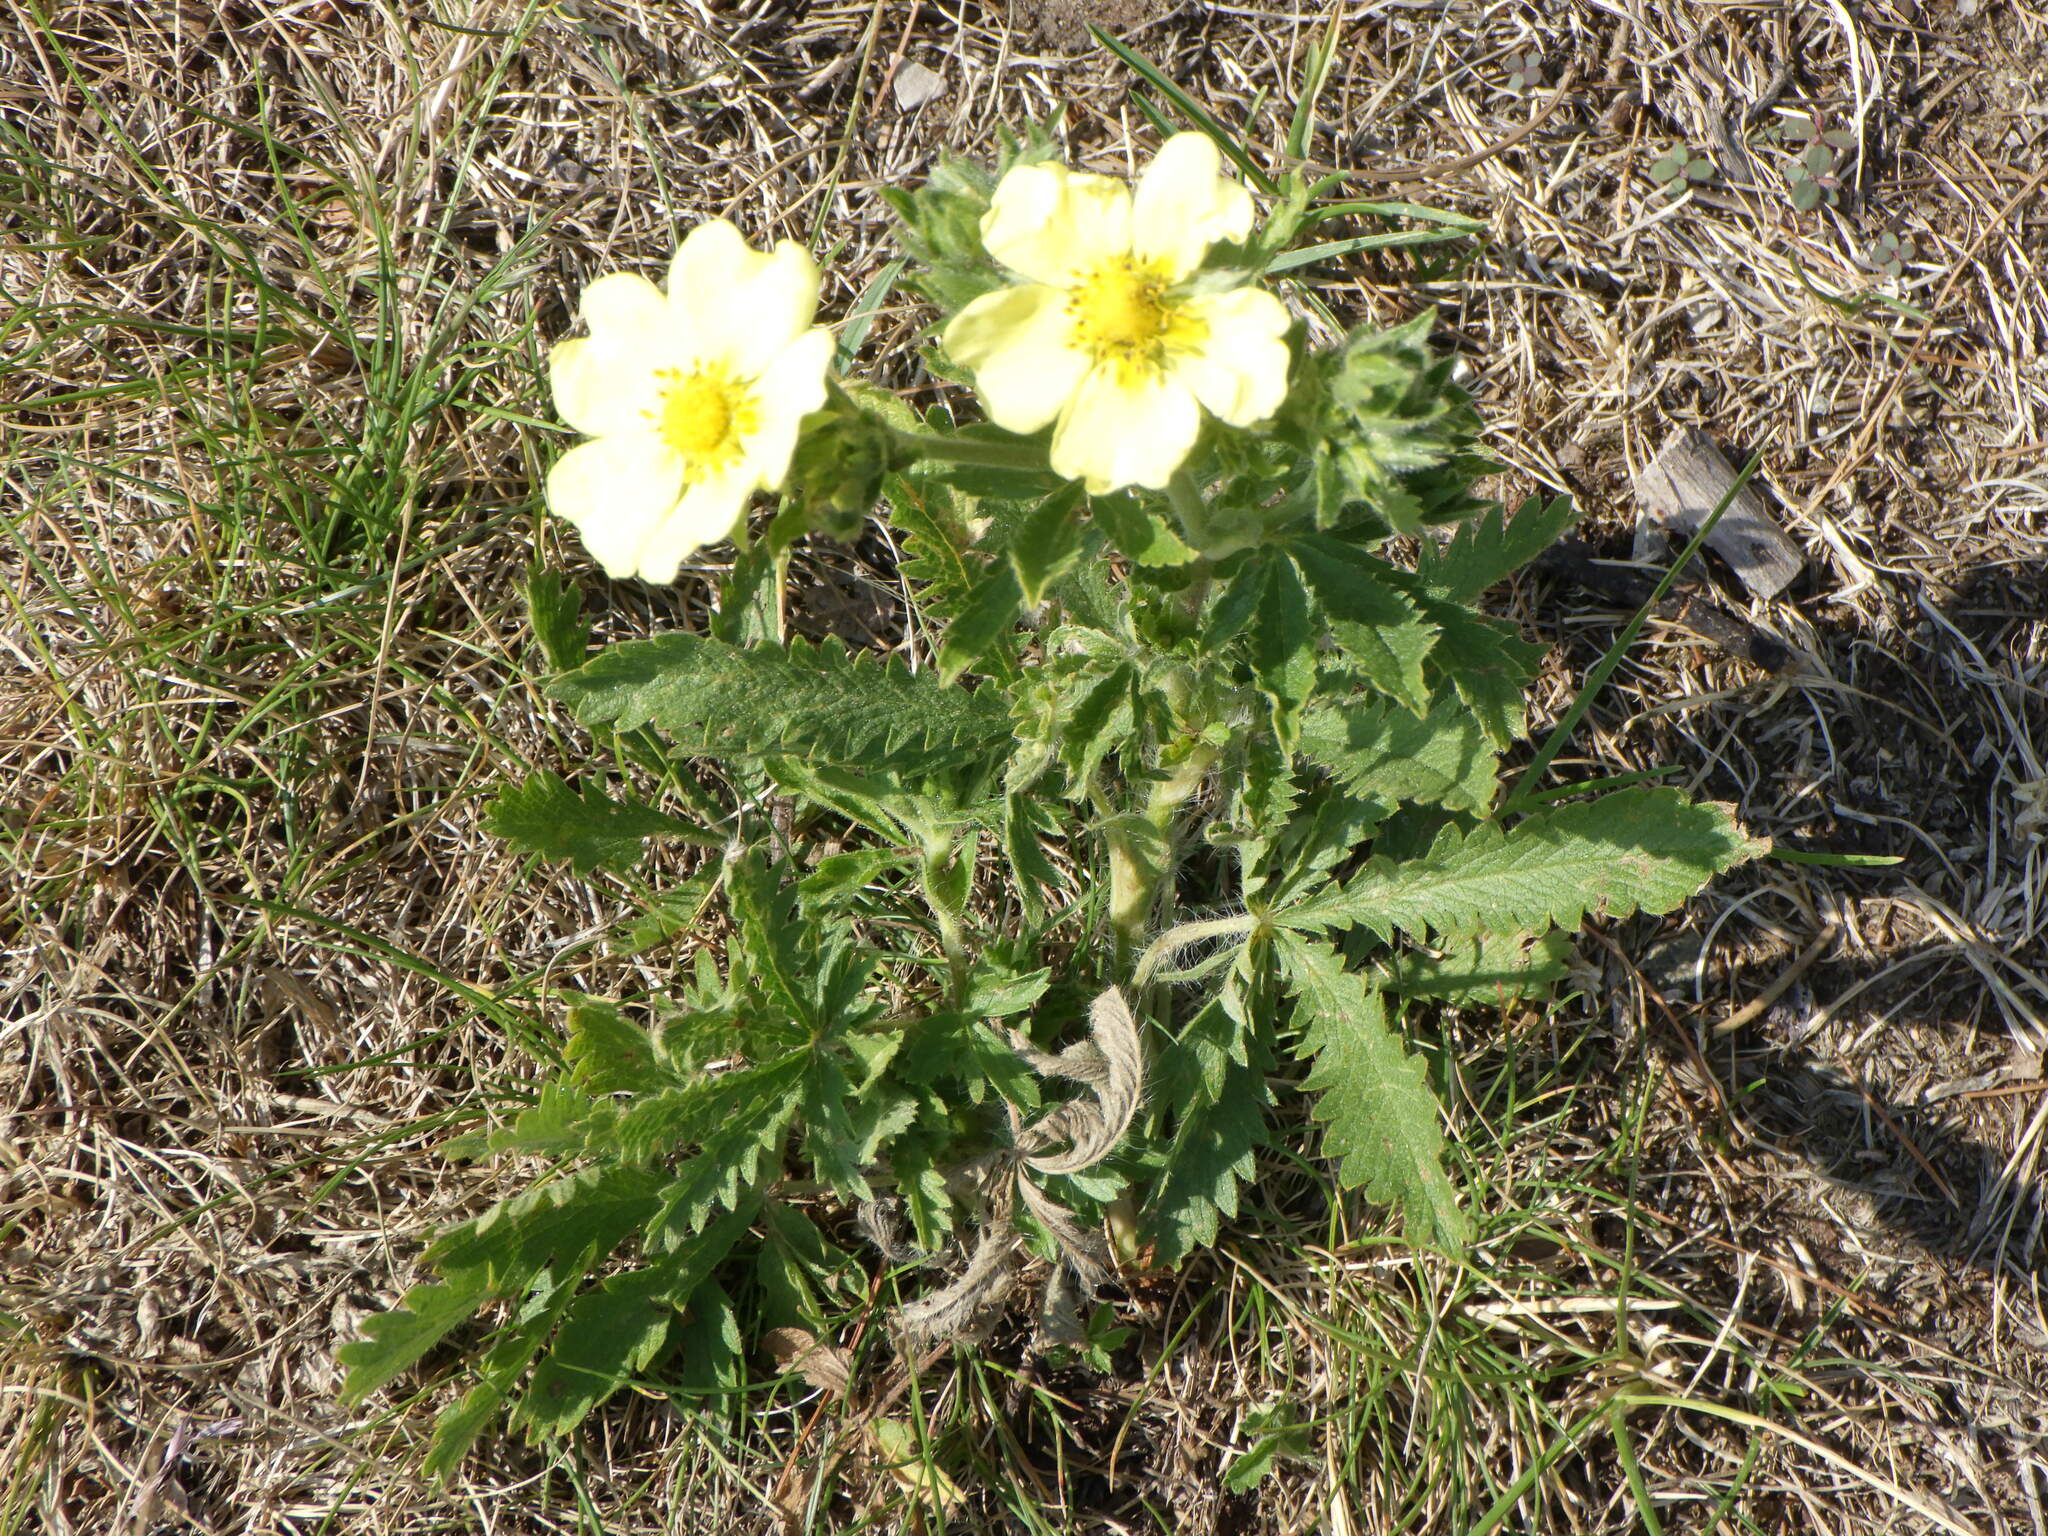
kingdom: Plantae
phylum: Tracheophyta
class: Magnoliopsida
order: Rosales
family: Rosaceae
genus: Potentilla
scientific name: Potentilla recta
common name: Sulphur cinquefoil
